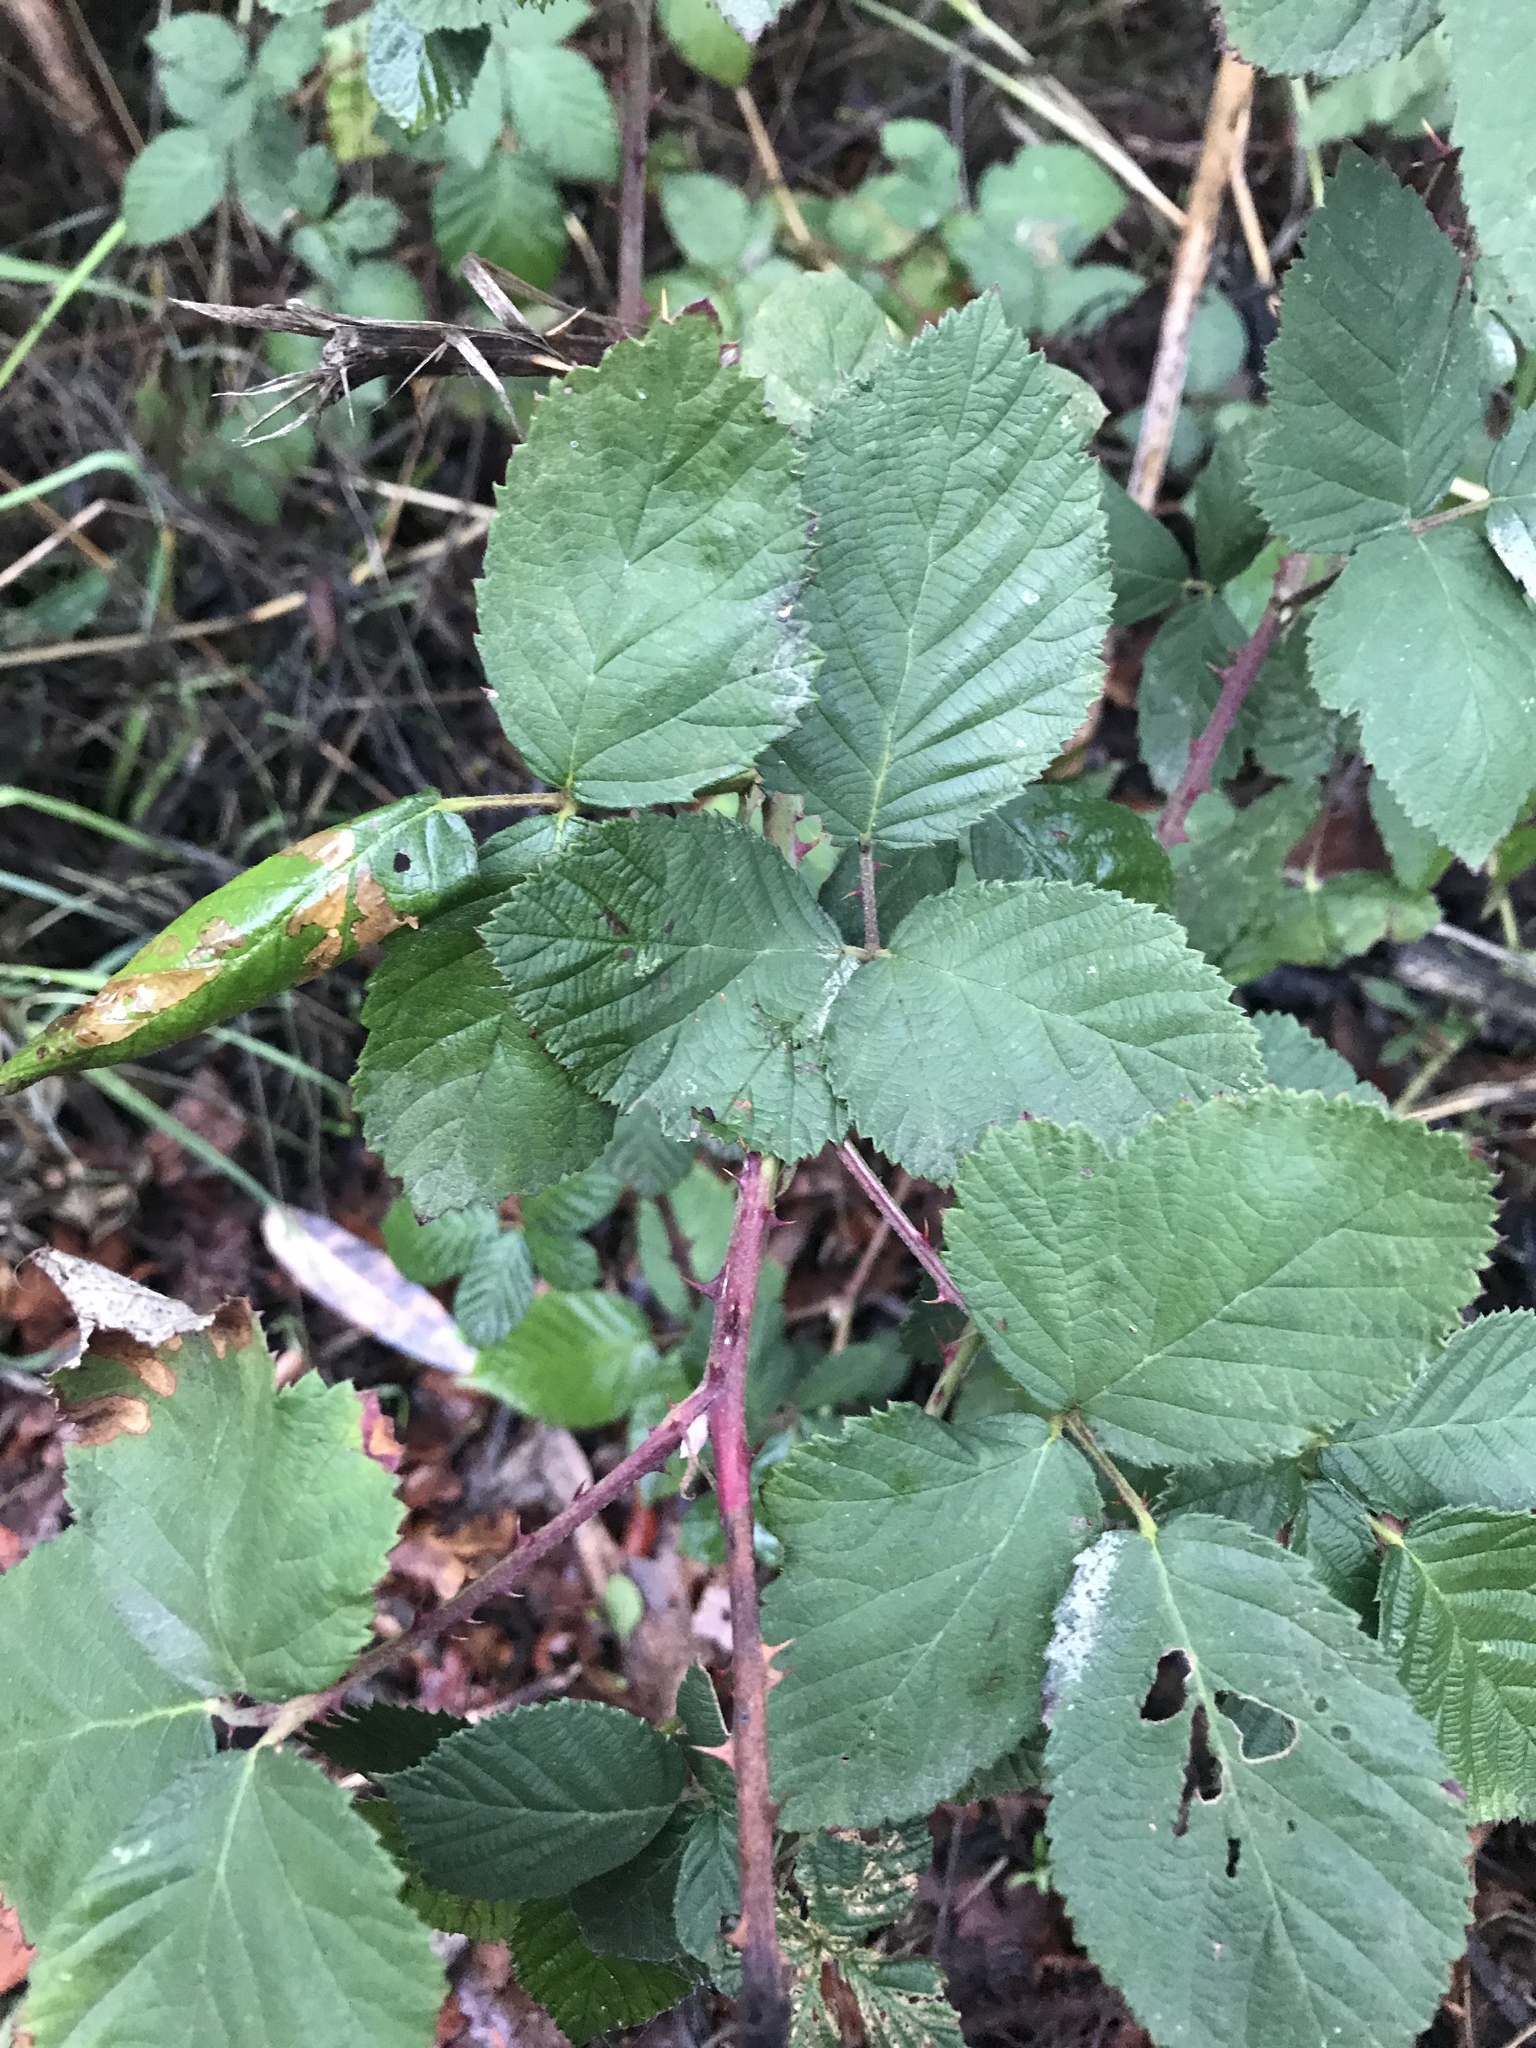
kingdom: Plantae
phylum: Tracheophyta
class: Magnoliopsida
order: Rosales
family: Rosaceae
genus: Rubus
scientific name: Rubus armeniacus
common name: Himalayan blackberry
